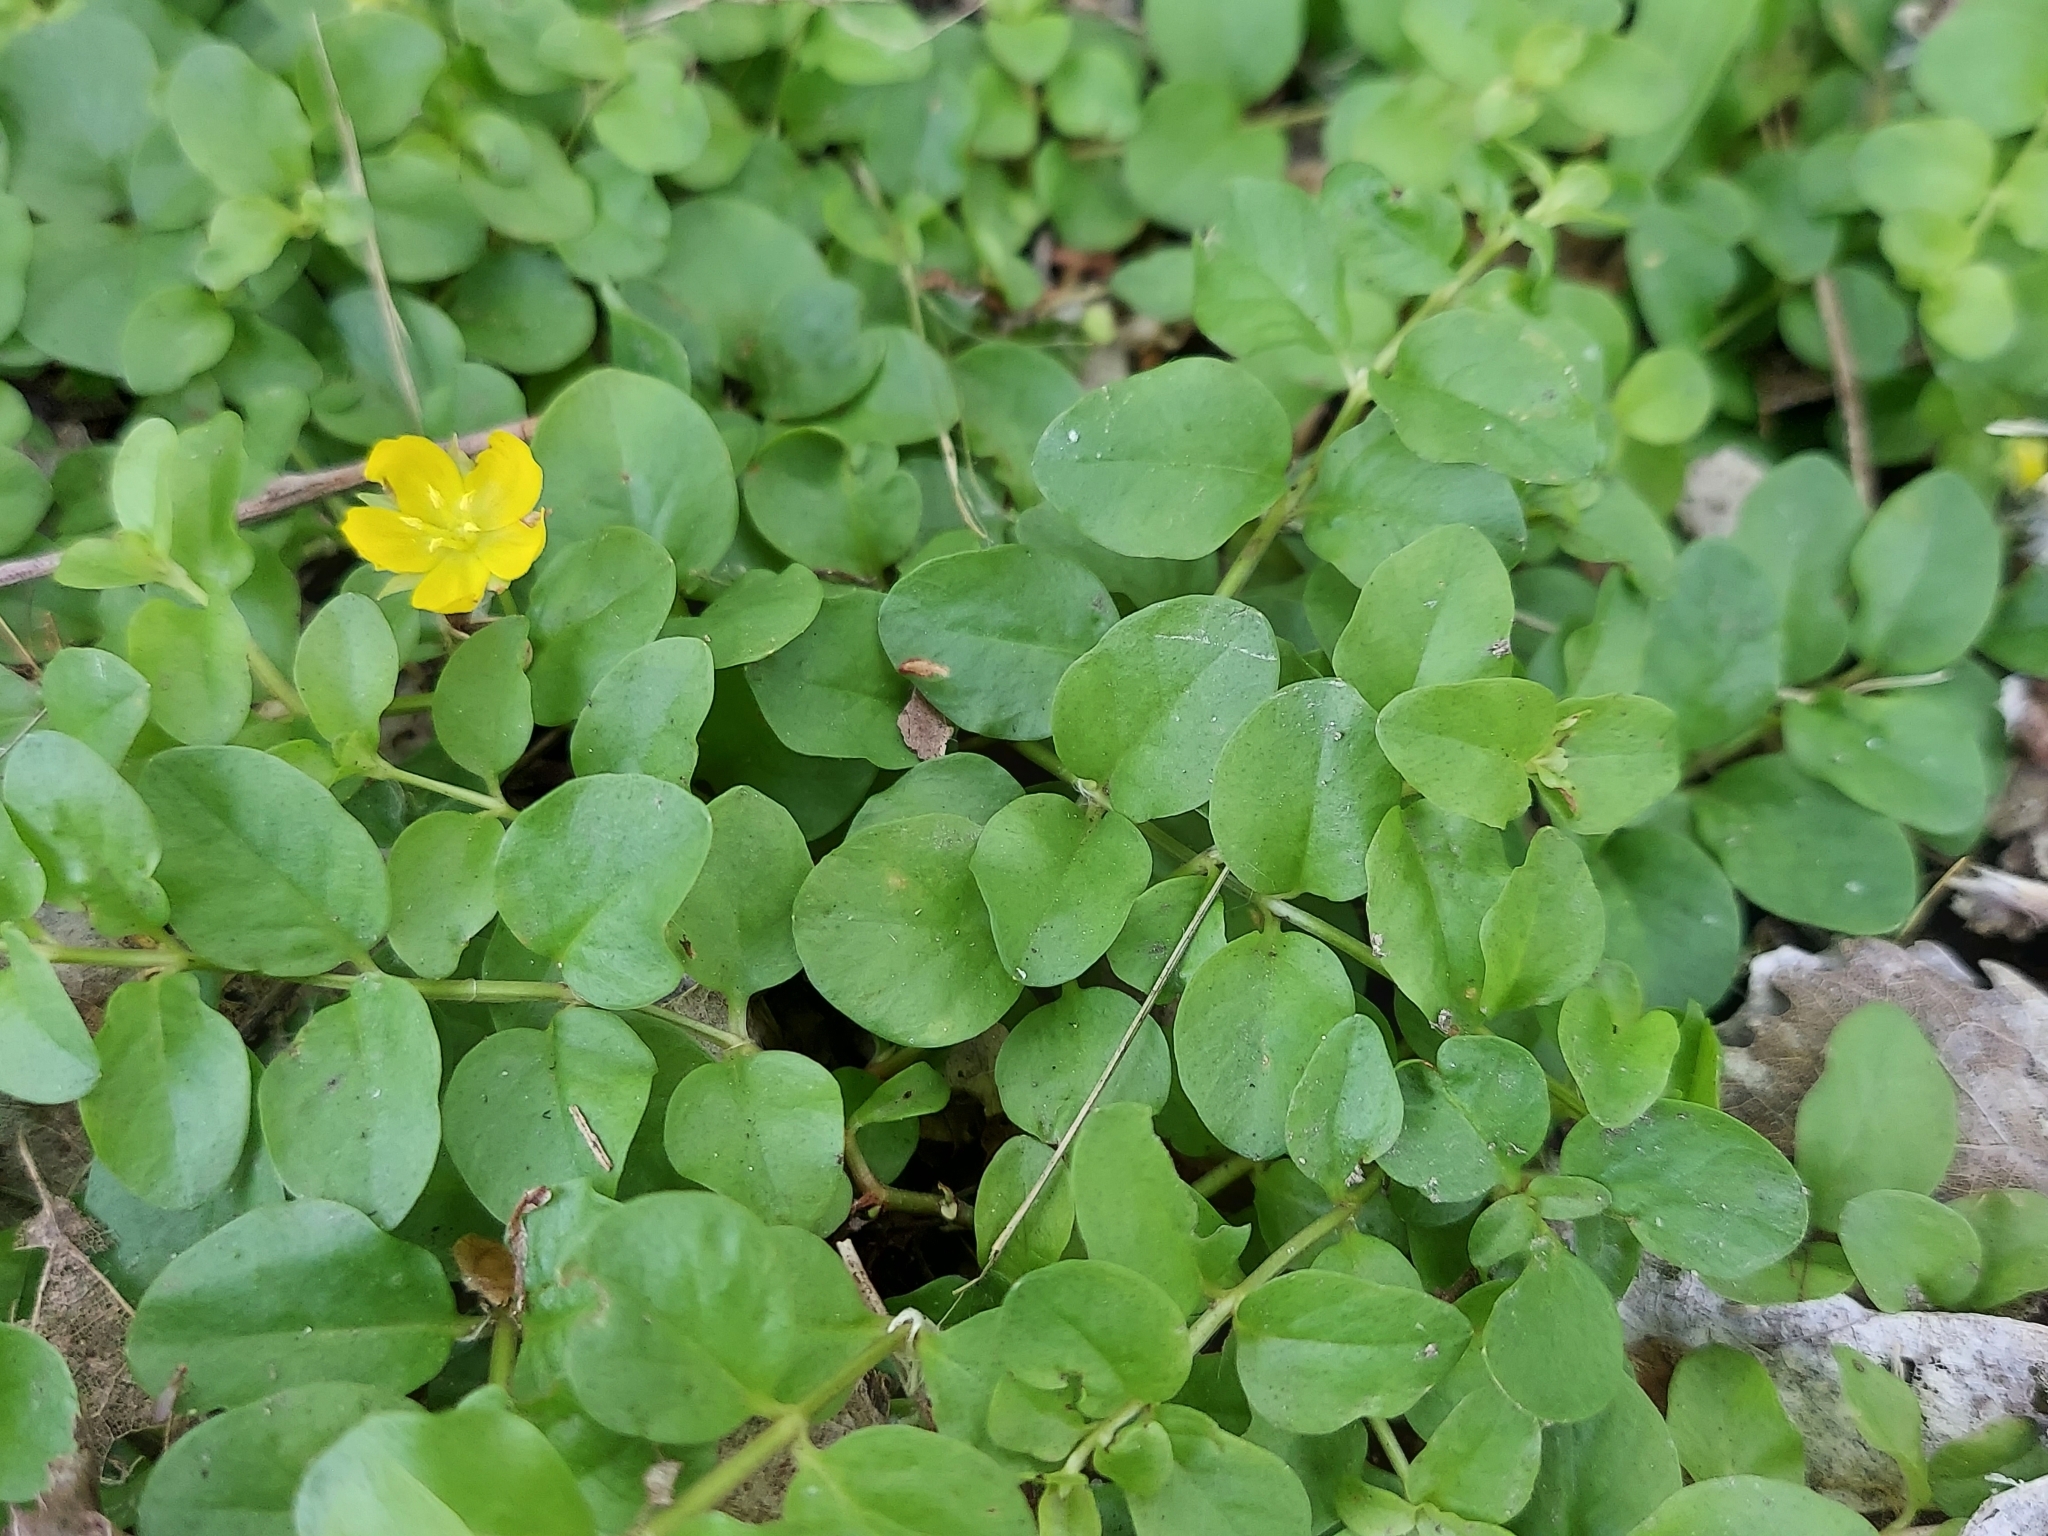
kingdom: Plantae
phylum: Tracheophyta
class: Magnoliopsida
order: Ericales
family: Primulaceae
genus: Lysimachia
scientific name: Lysimachia nummularia
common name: Moneywort
